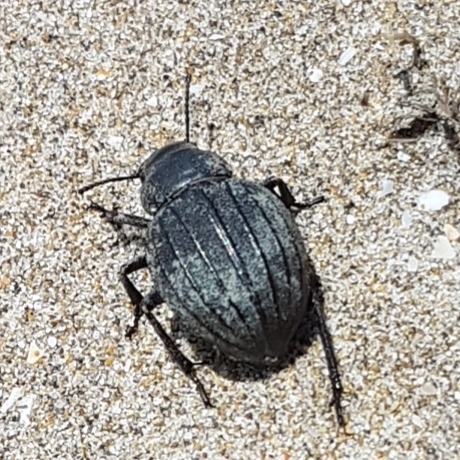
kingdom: Animalia
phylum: Arthropoda
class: Insecta
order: Coleoptera
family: Tenebrionidae
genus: Pimelia
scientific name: Pimelia muricata
